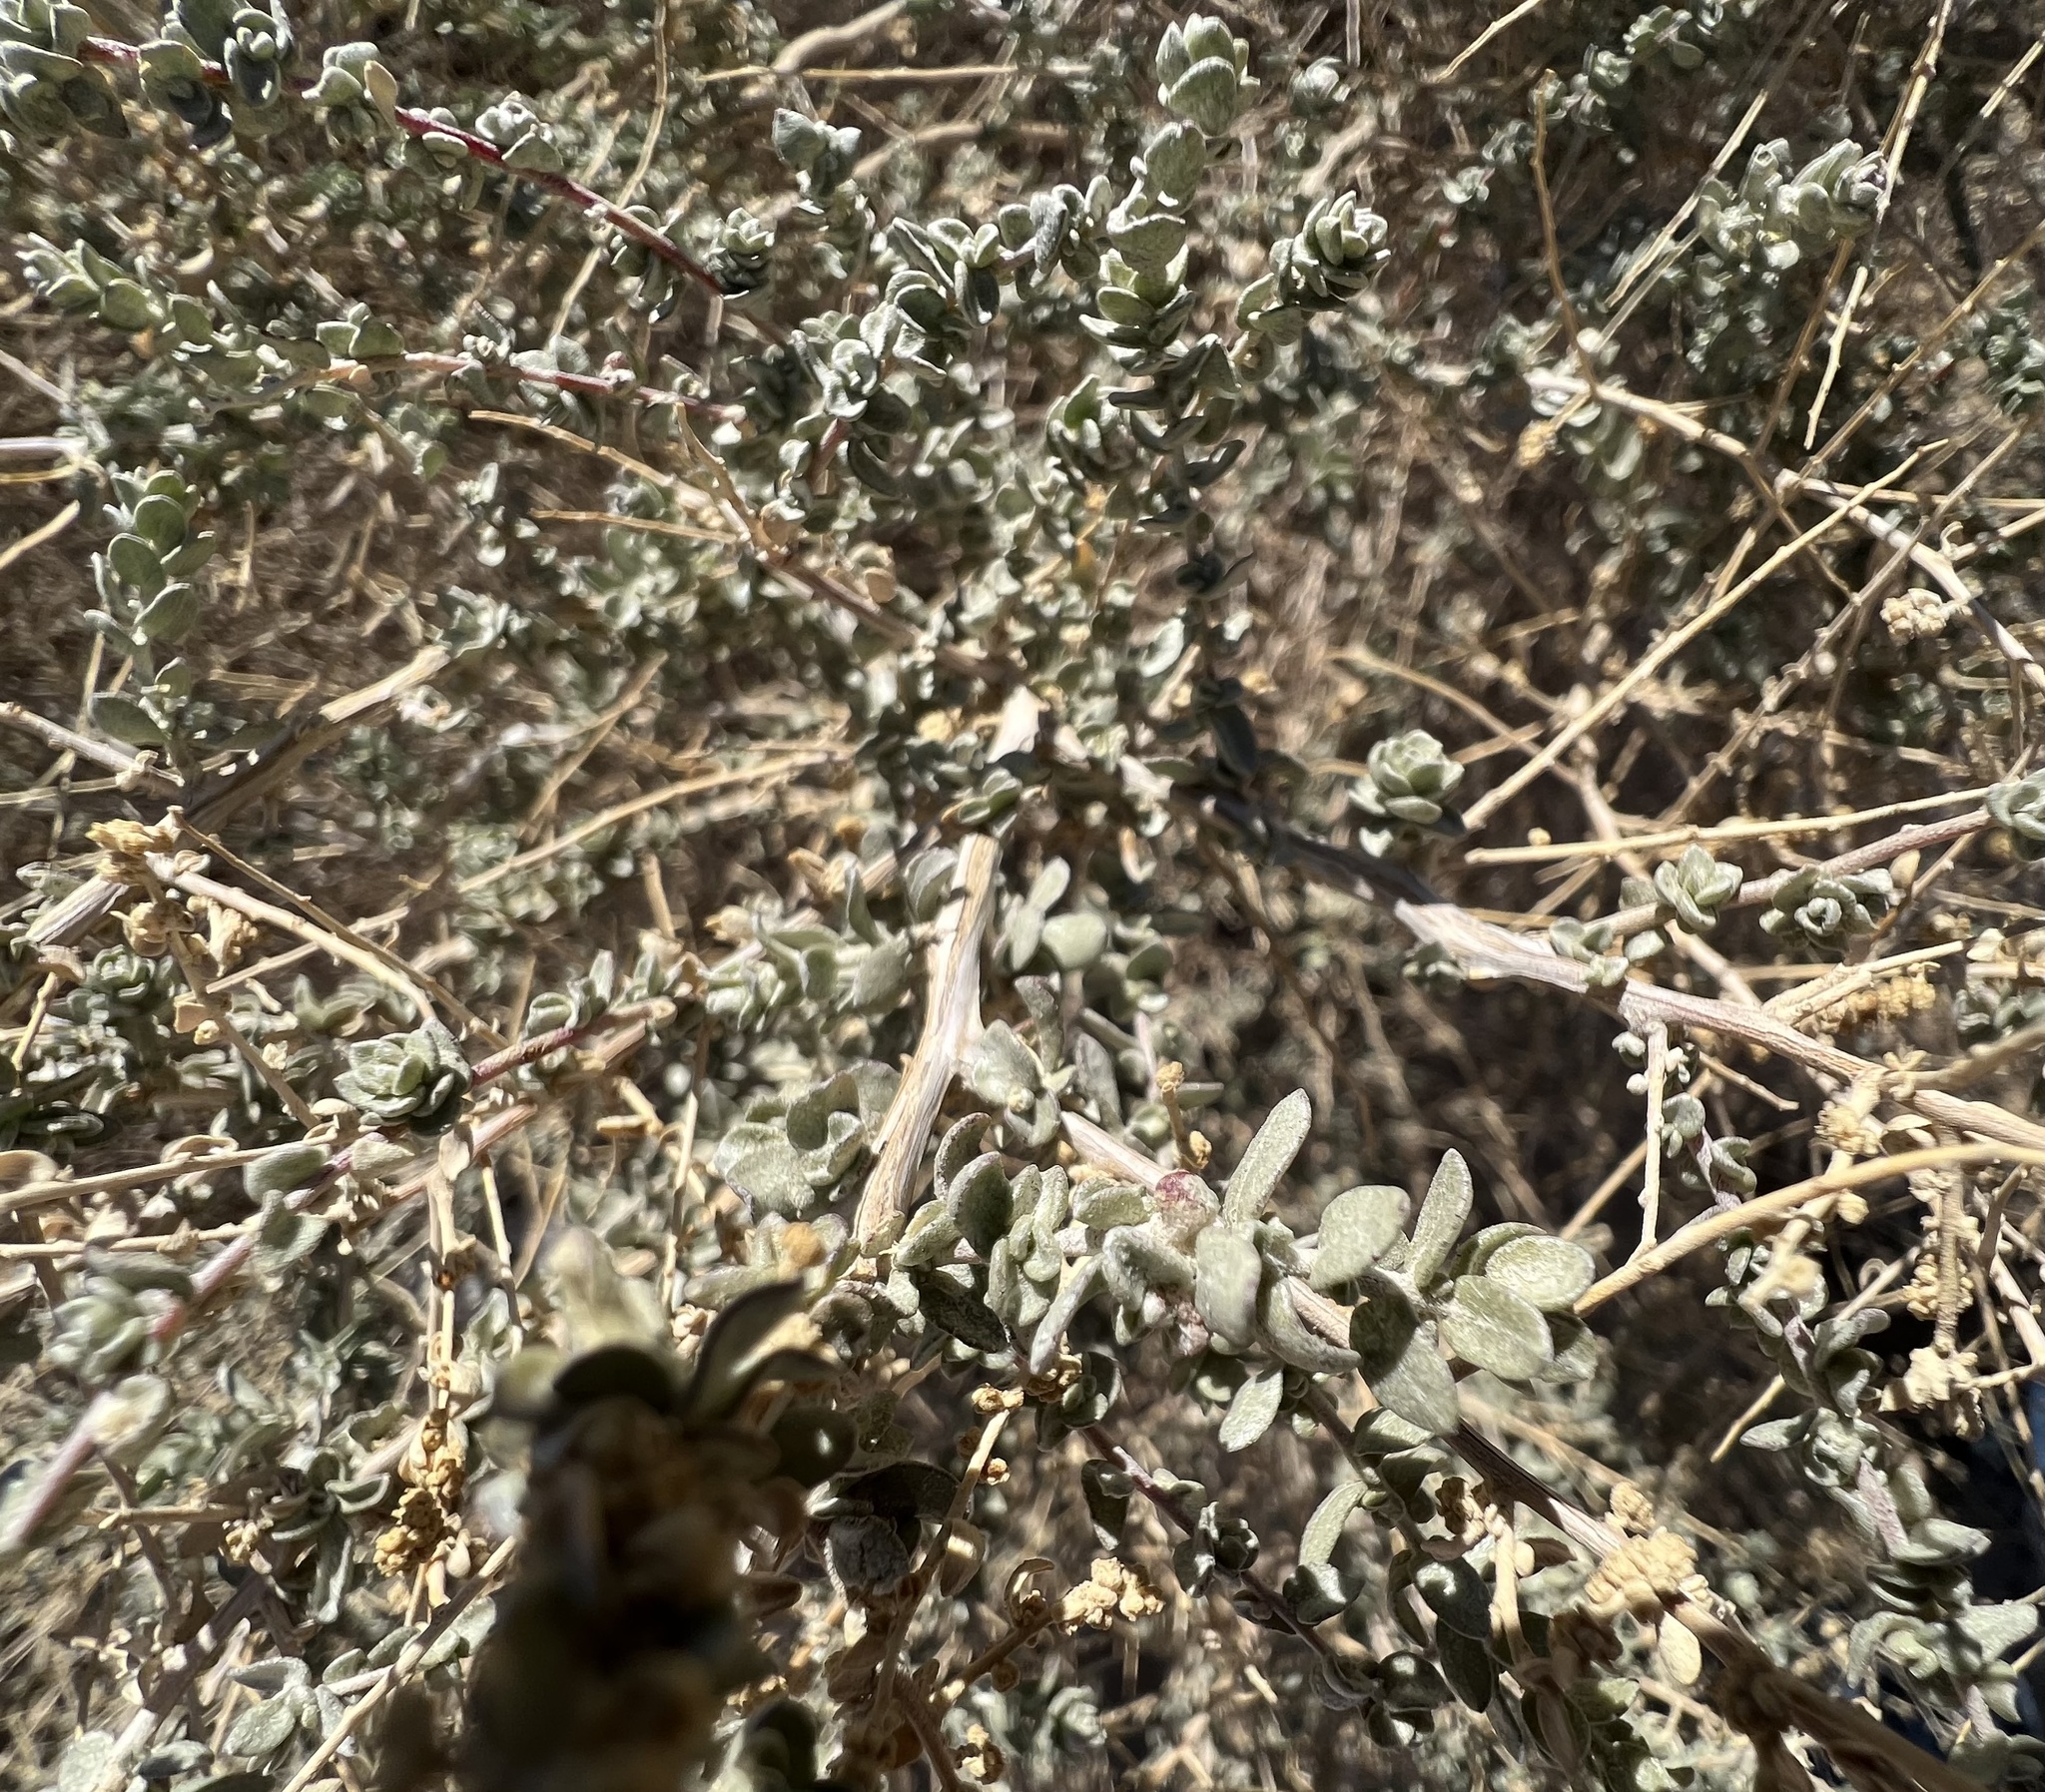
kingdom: Plantae
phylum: Tracheophyta
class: Magnoliopsida
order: Caryophyllales
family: Amaranthaceae
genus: Atriplex
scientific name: Atriplex polycarpa
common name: Desert saltbush
